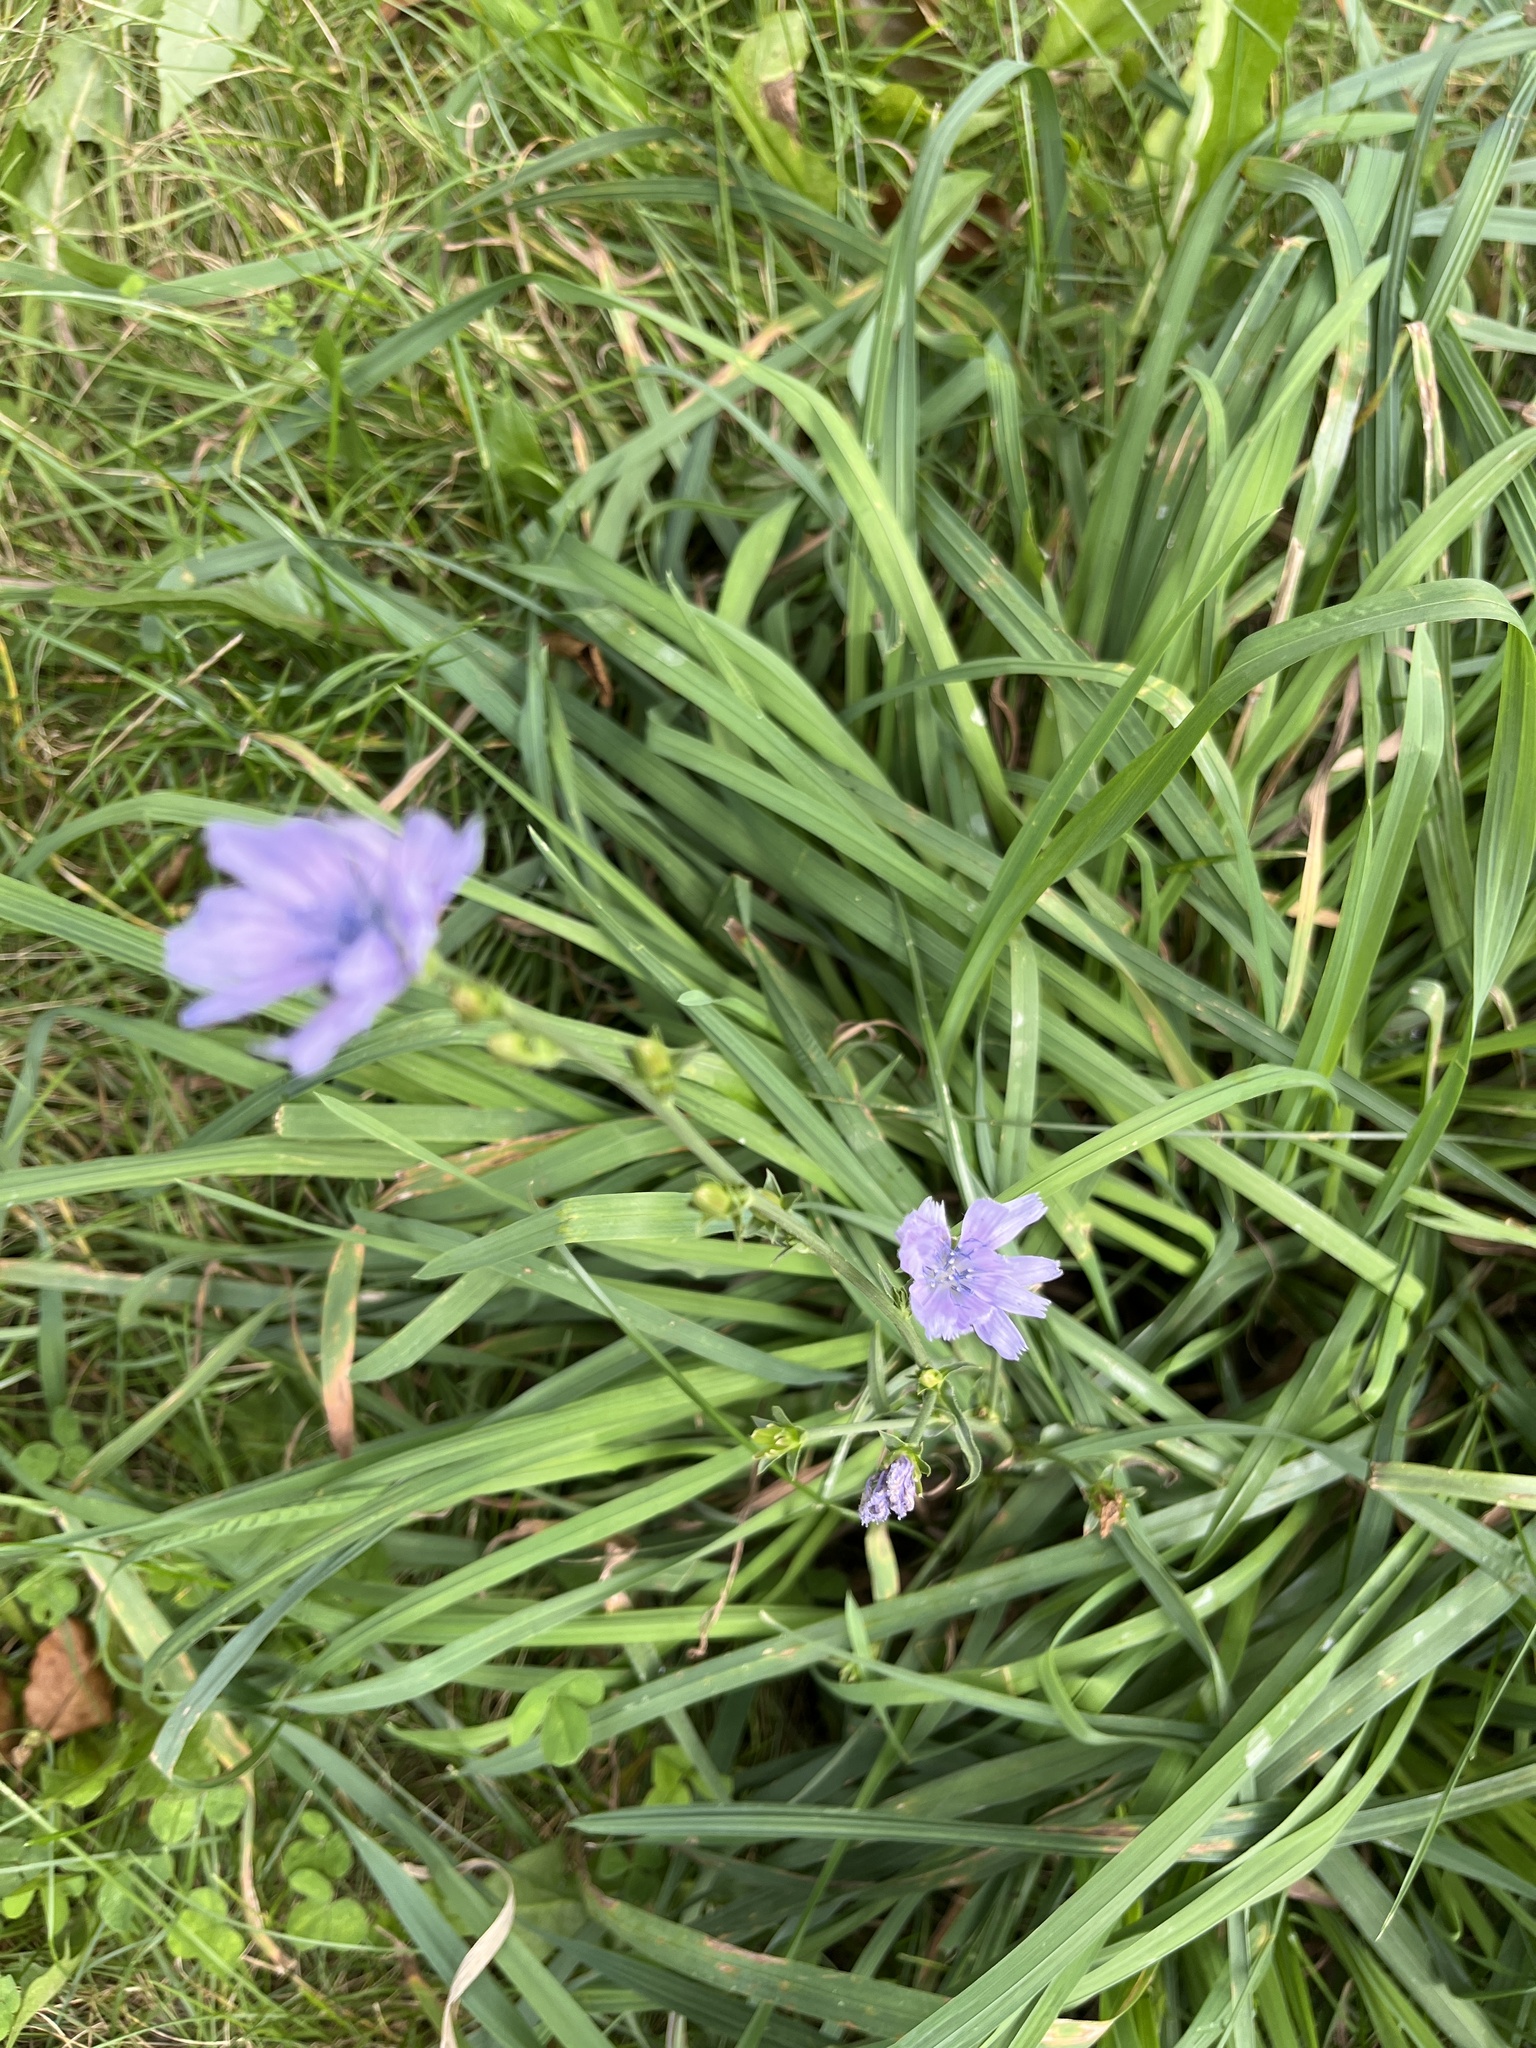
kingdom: Plantae
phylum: Tracheophyta
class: Magnoliopsida
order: Asterales
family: Asteraceae
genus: Cichorium
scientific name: Cichorium intybus
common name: Chicory
